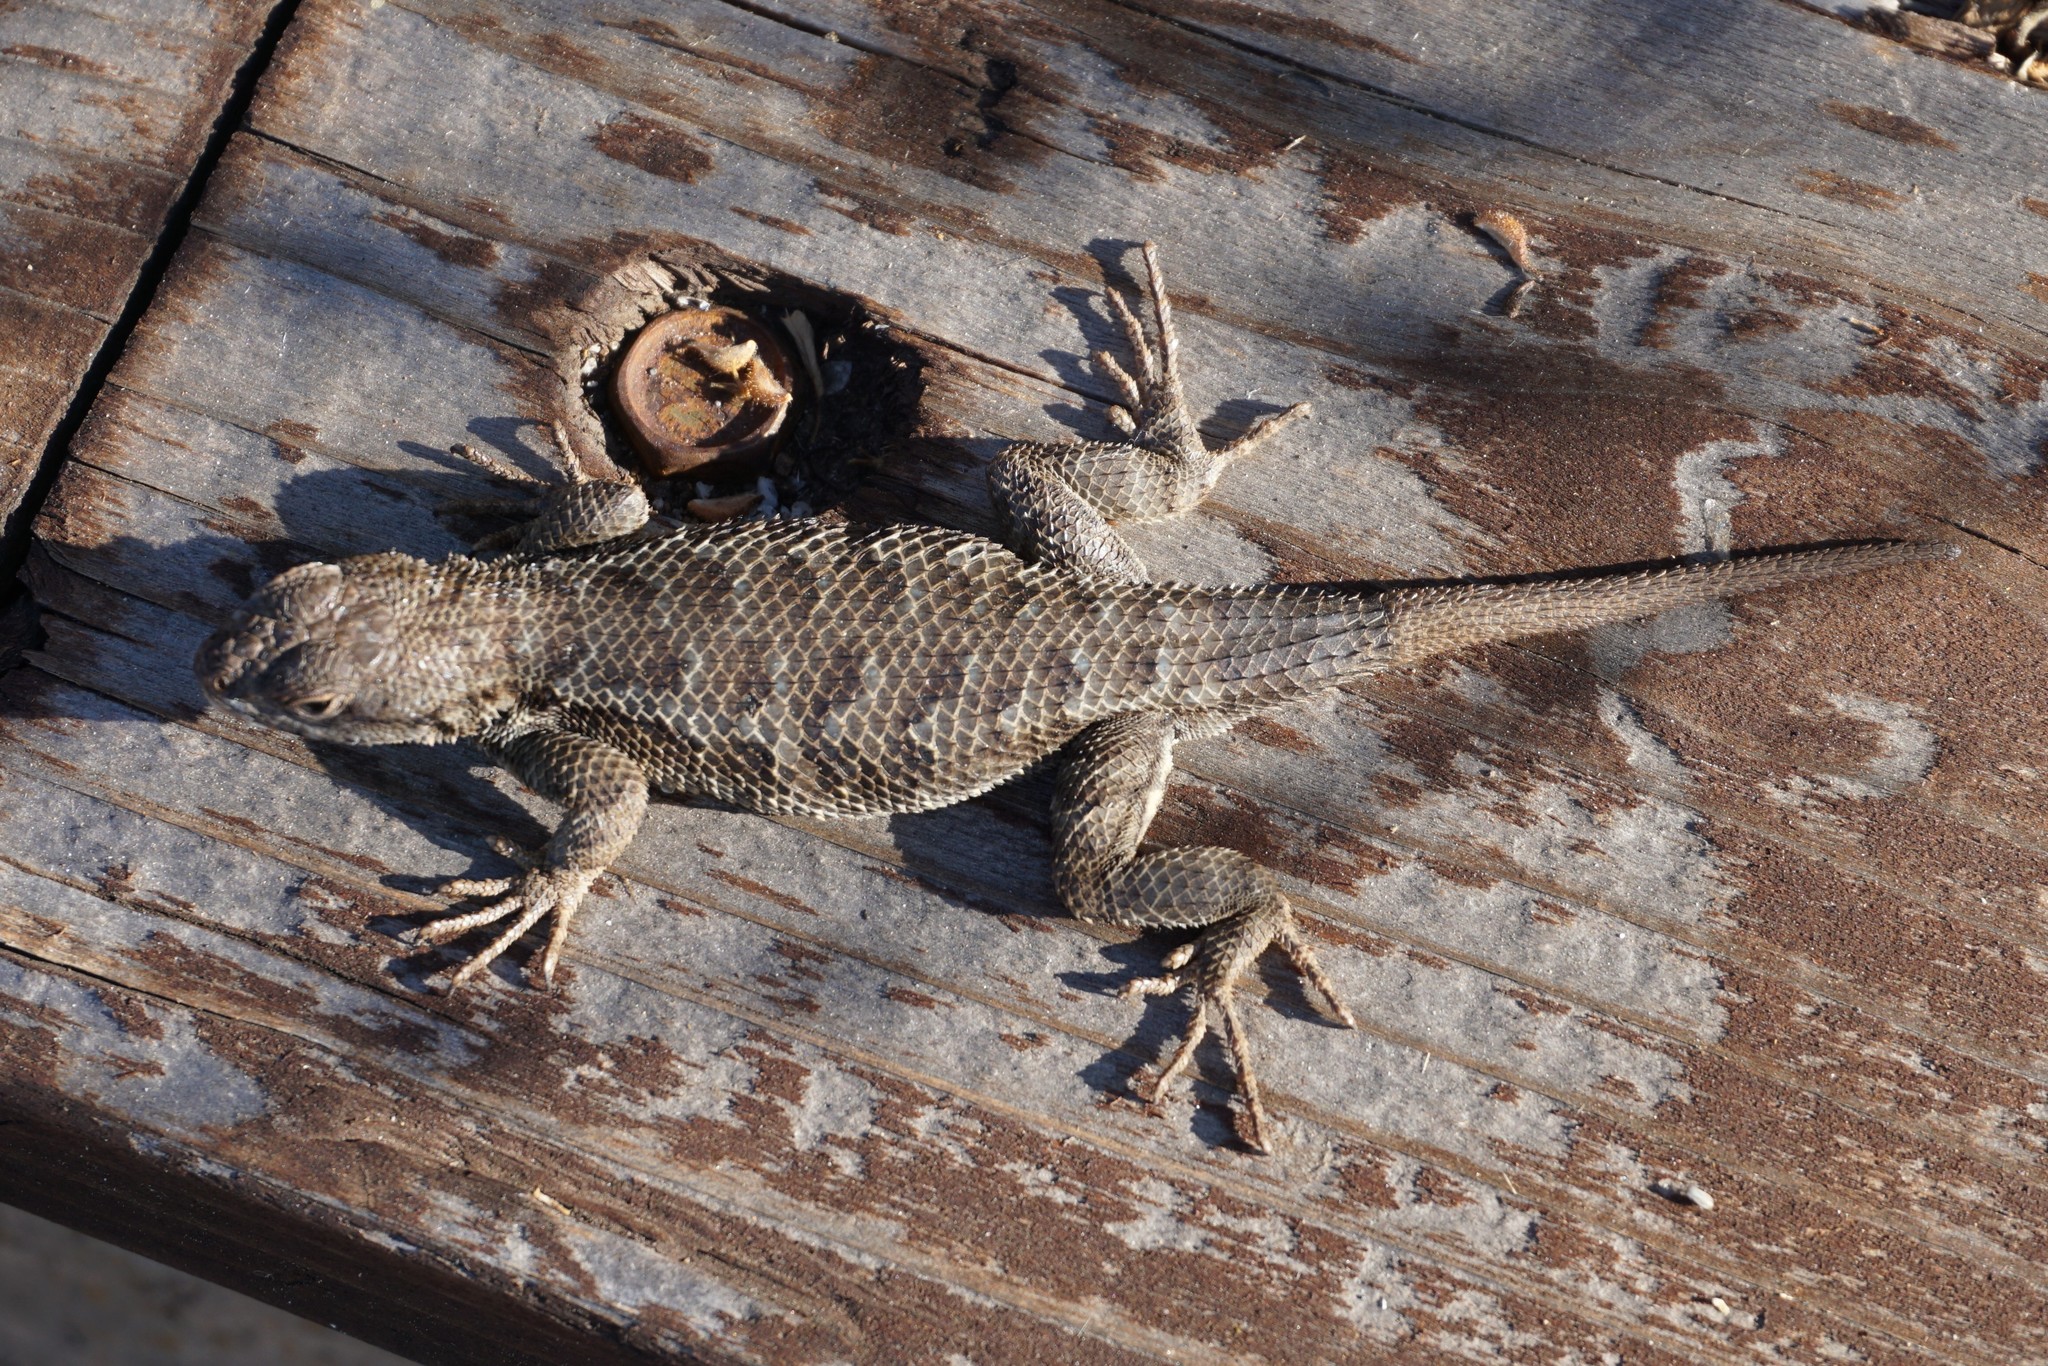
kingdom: Animalia
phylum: Chordata
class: Squamata
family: Phrynosomatidae
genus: Sceloporus
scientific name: Sceloporus occidentalis
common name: Western fence lizard
